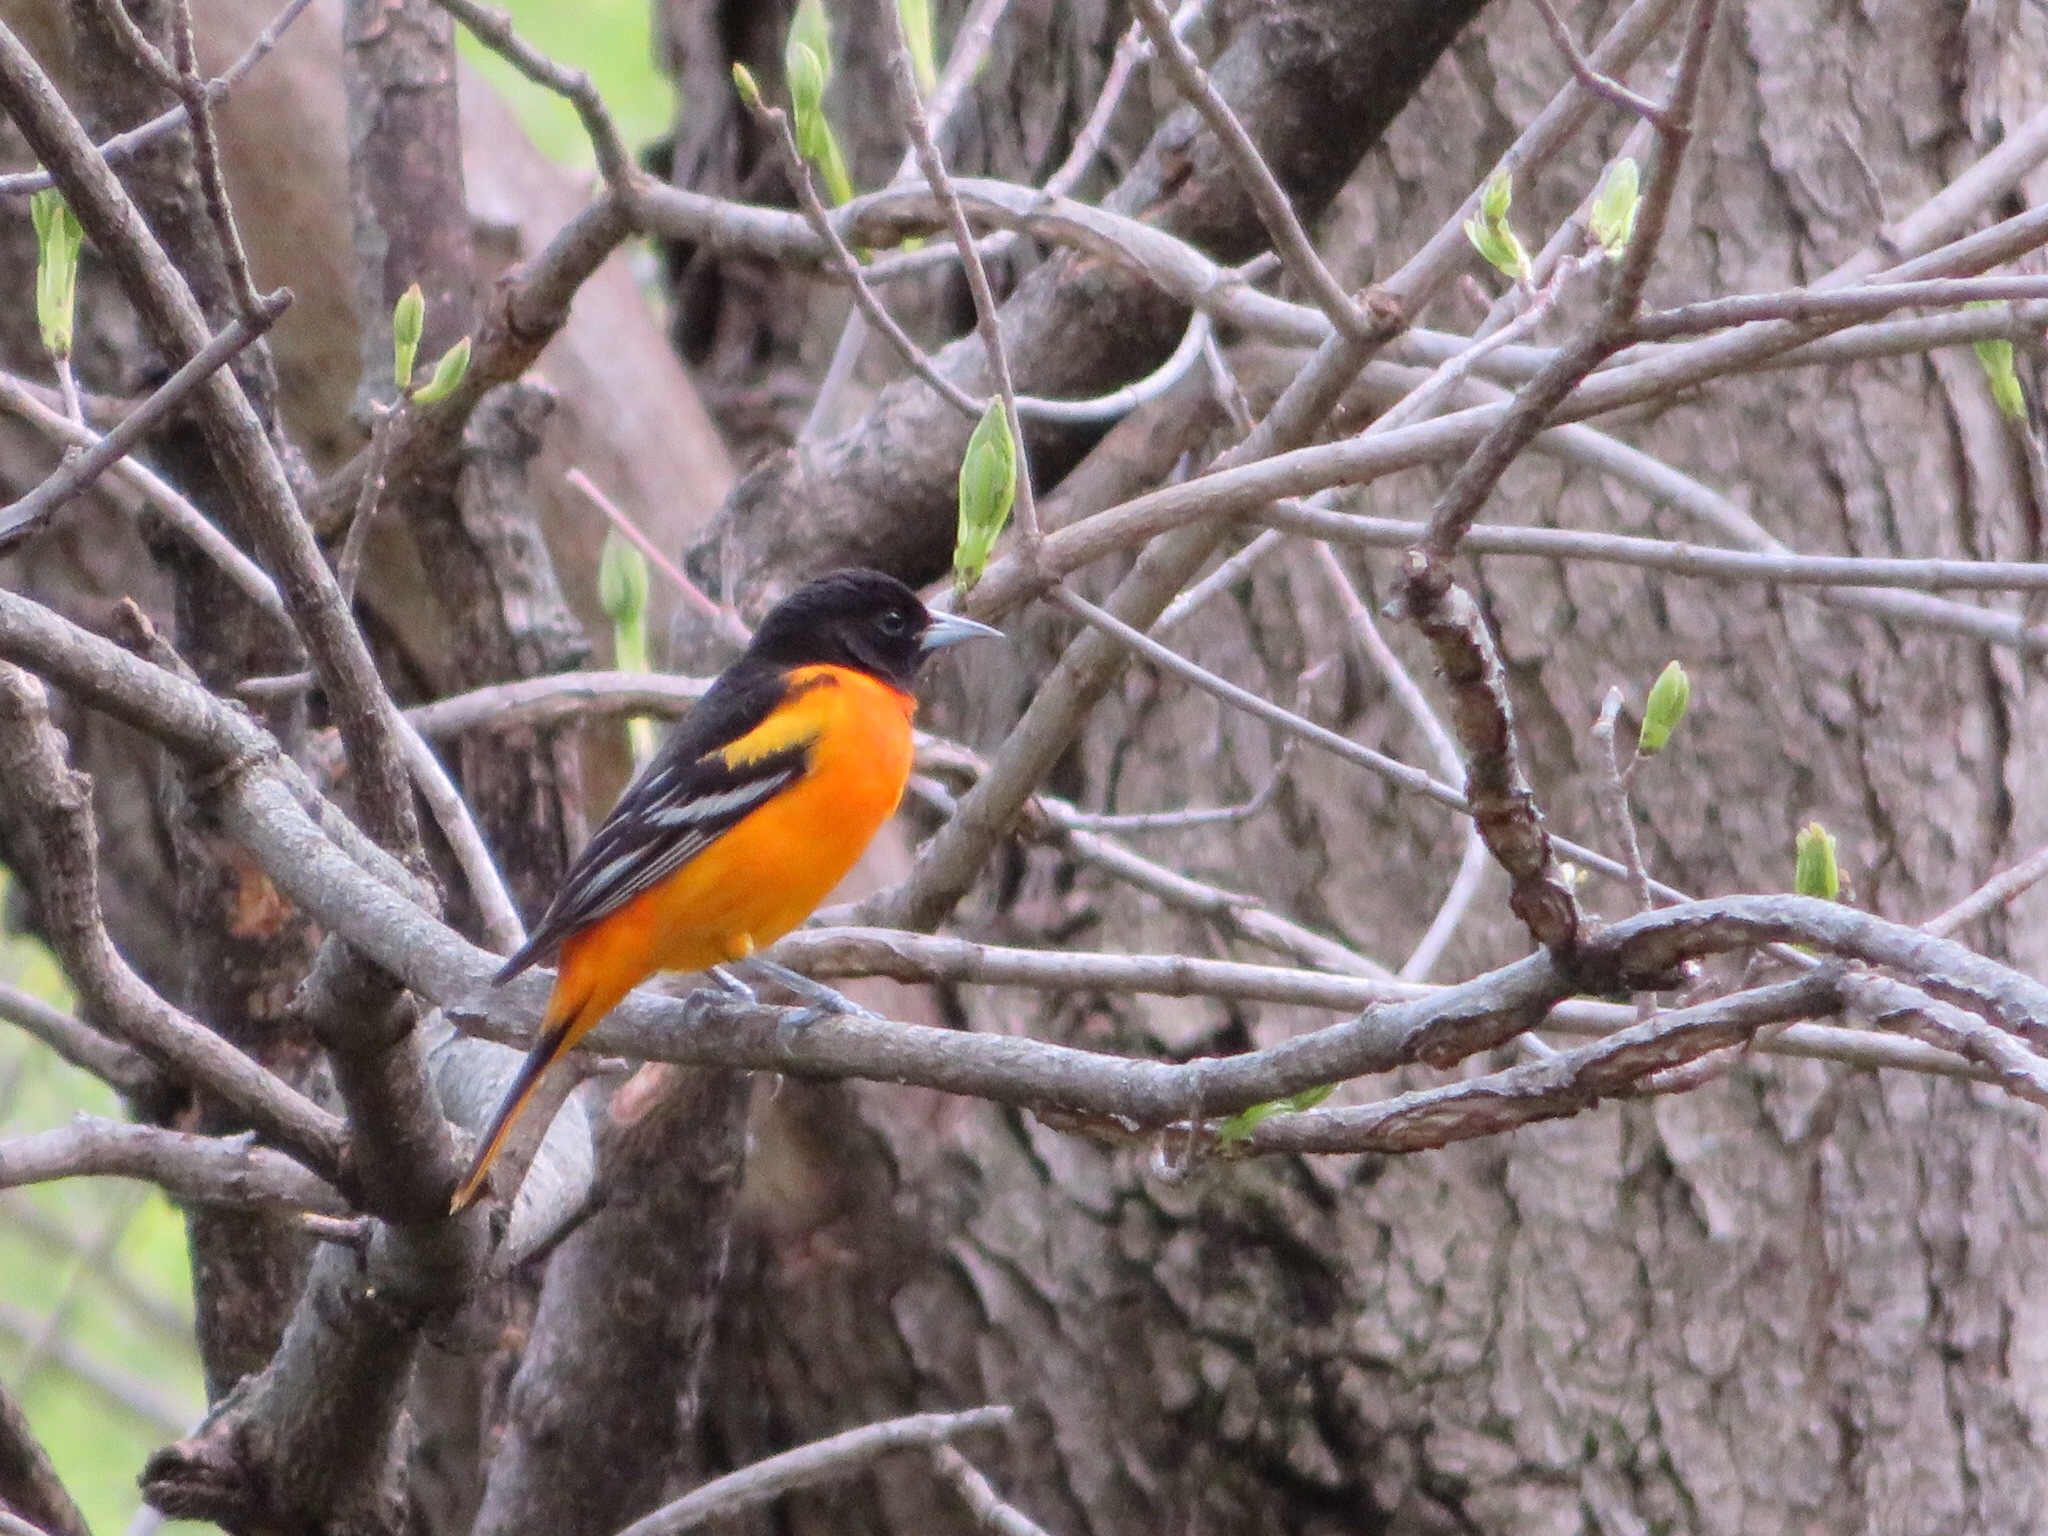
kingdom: Animalia
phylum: Chordata
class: Aves
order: Passeriformes
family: Icteridae
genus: Icterus
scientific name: Icterus galbula
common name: Baltimore oriole
